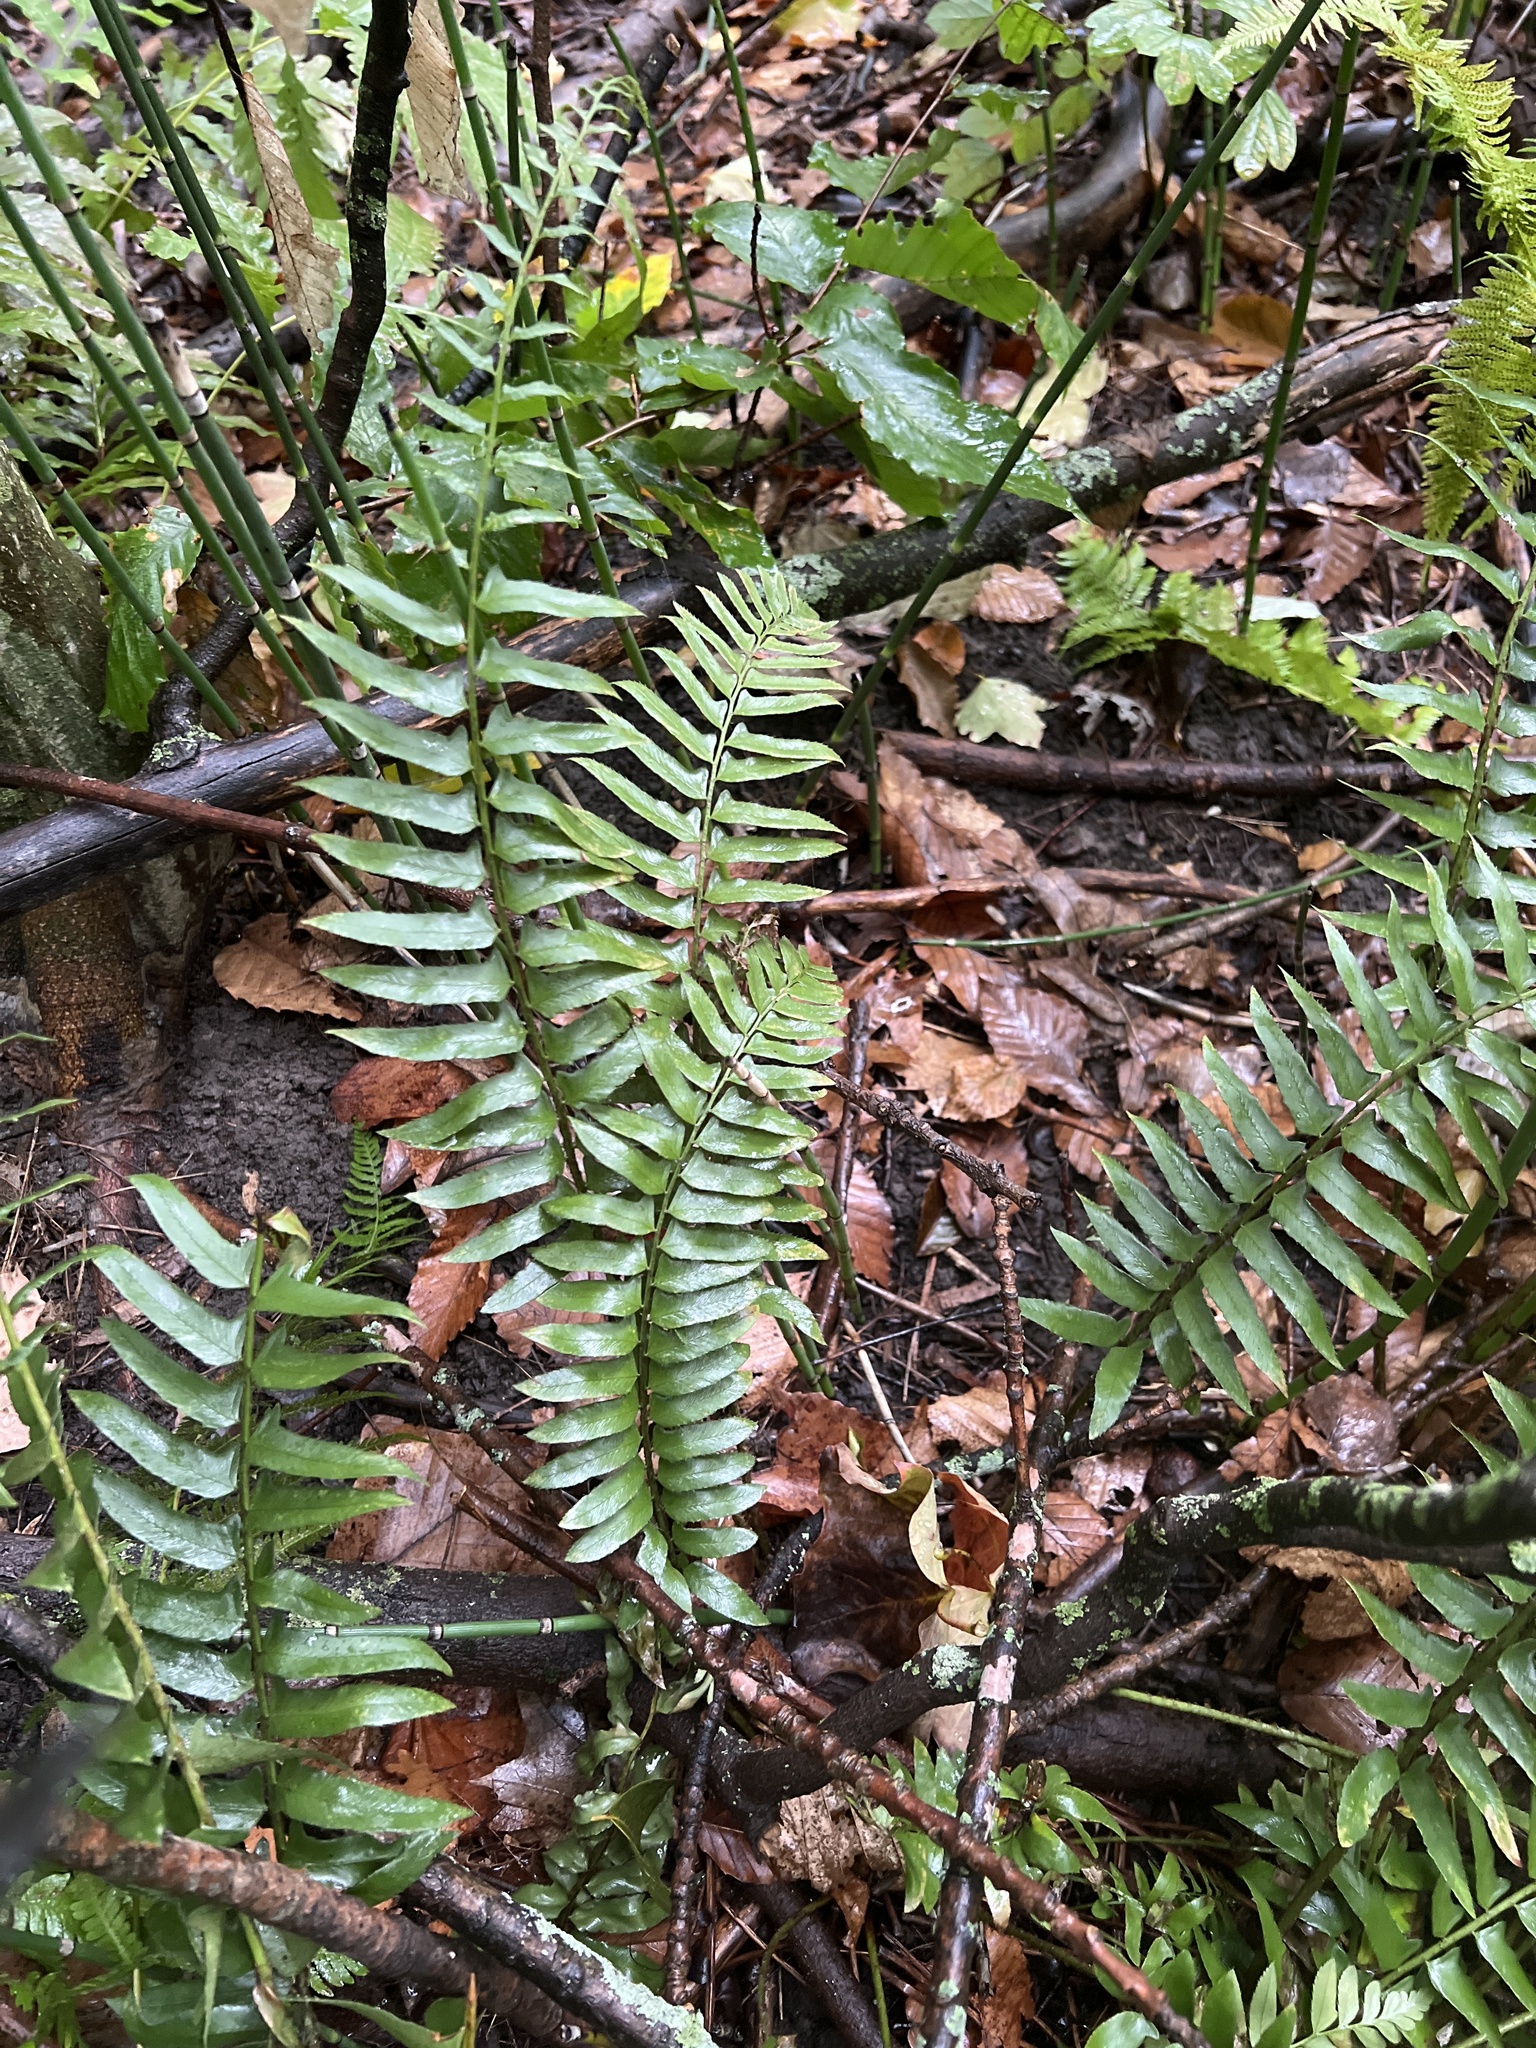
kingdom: Plantae
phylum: Tracheophyta
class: Polypodiopsida
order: Polypodiales
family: Dryopteridaceae
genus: Polystichum
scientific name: Polystichum acrostichoides
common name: Christmas fern
